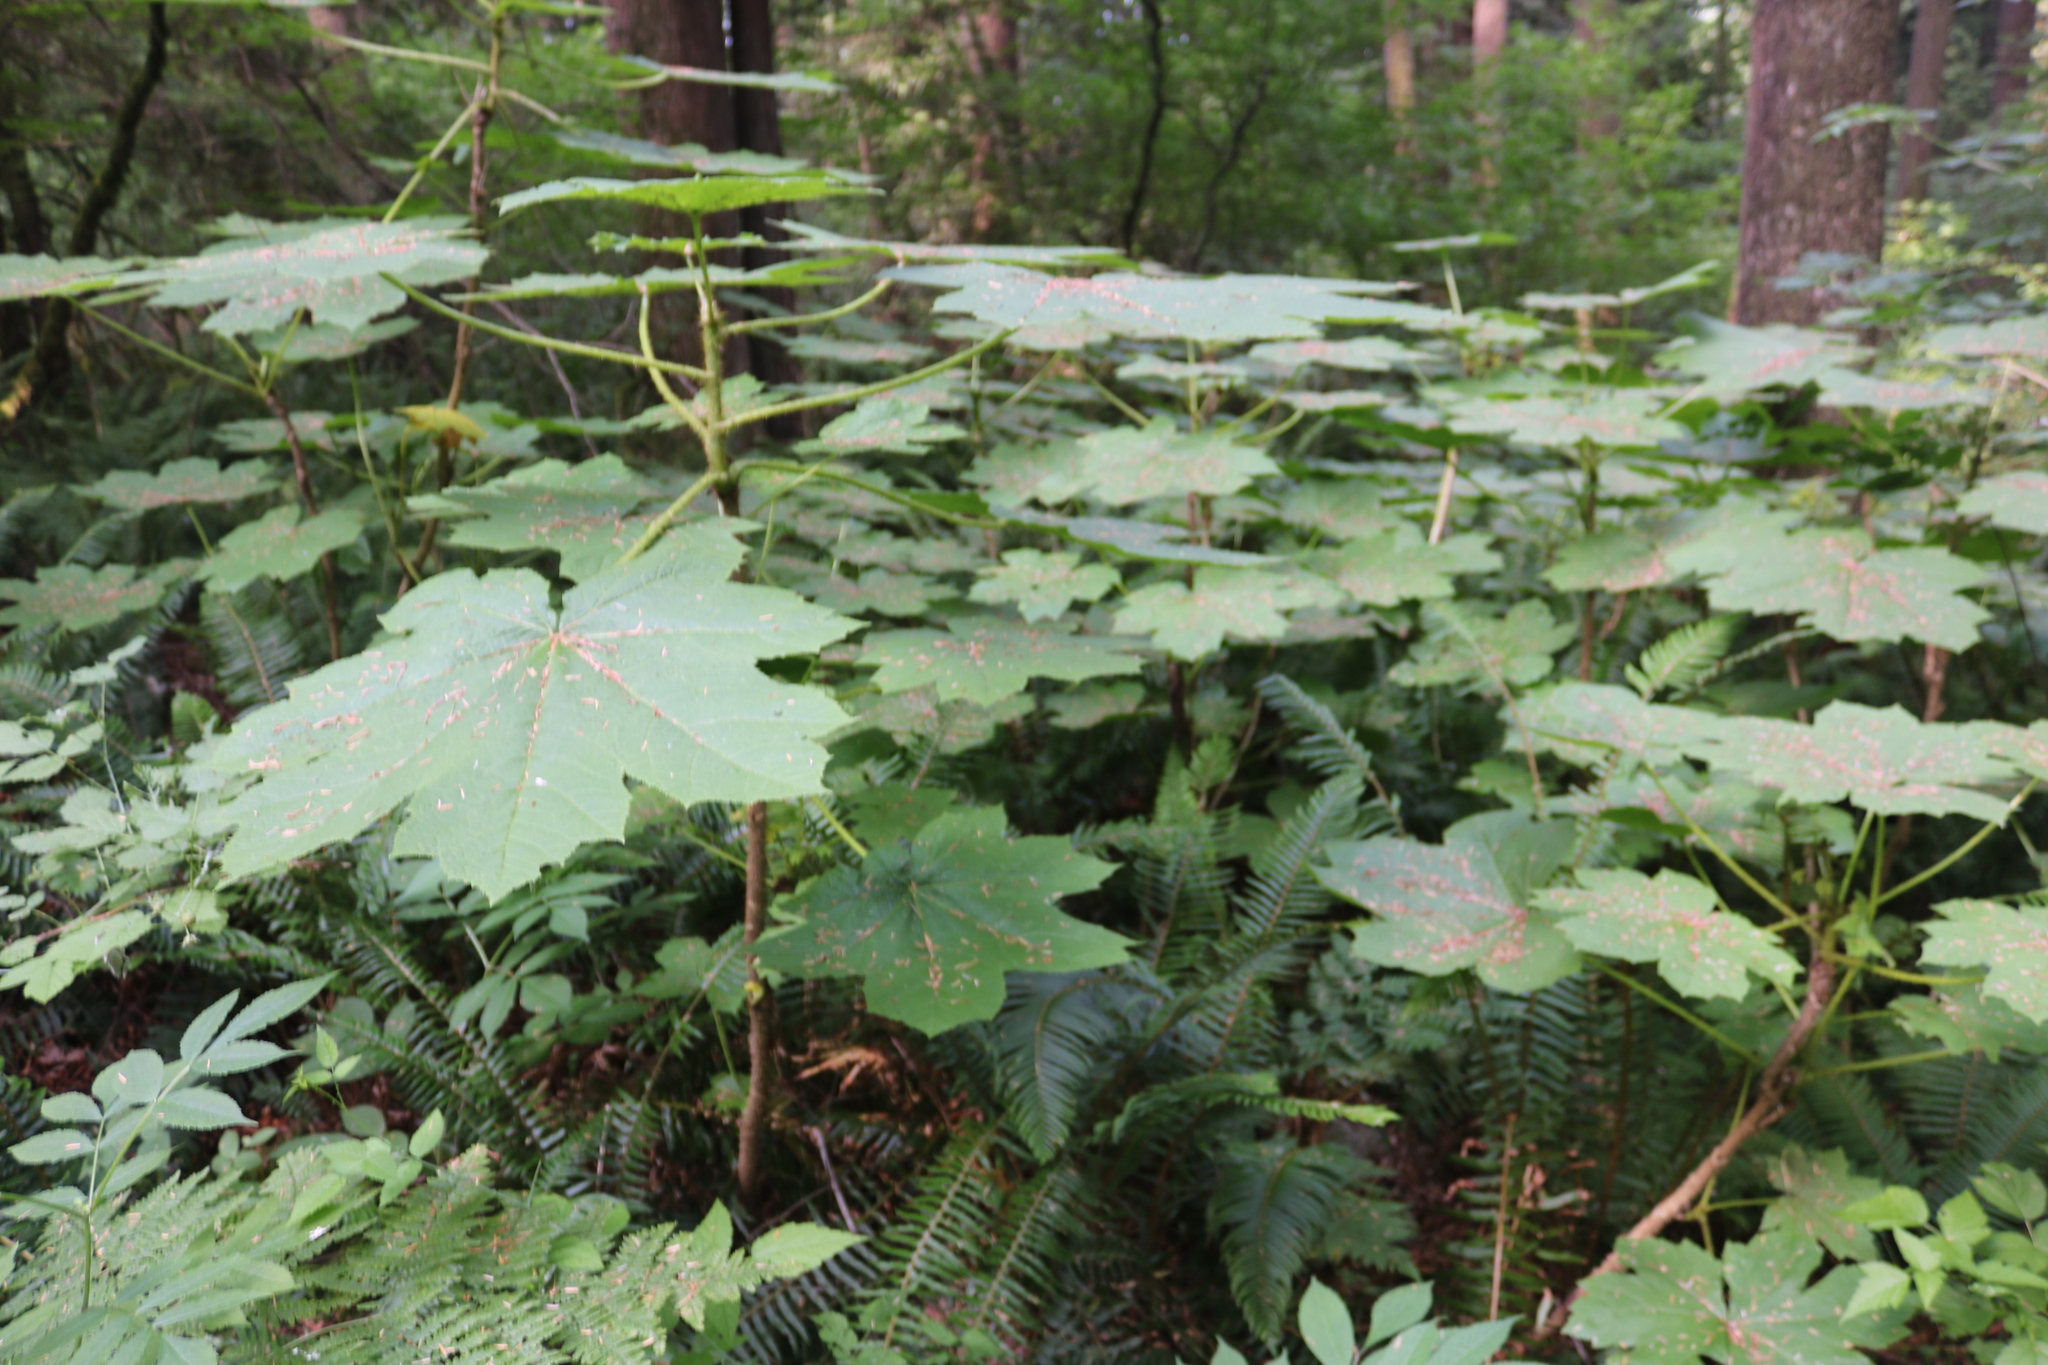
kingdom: Plantae
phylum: Tracheophyta
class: Magnoliopsida
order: Apiales
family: Araliaceae
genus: Oplopanax
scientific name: Oplopanax horridus
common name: Devil's walking-stick
